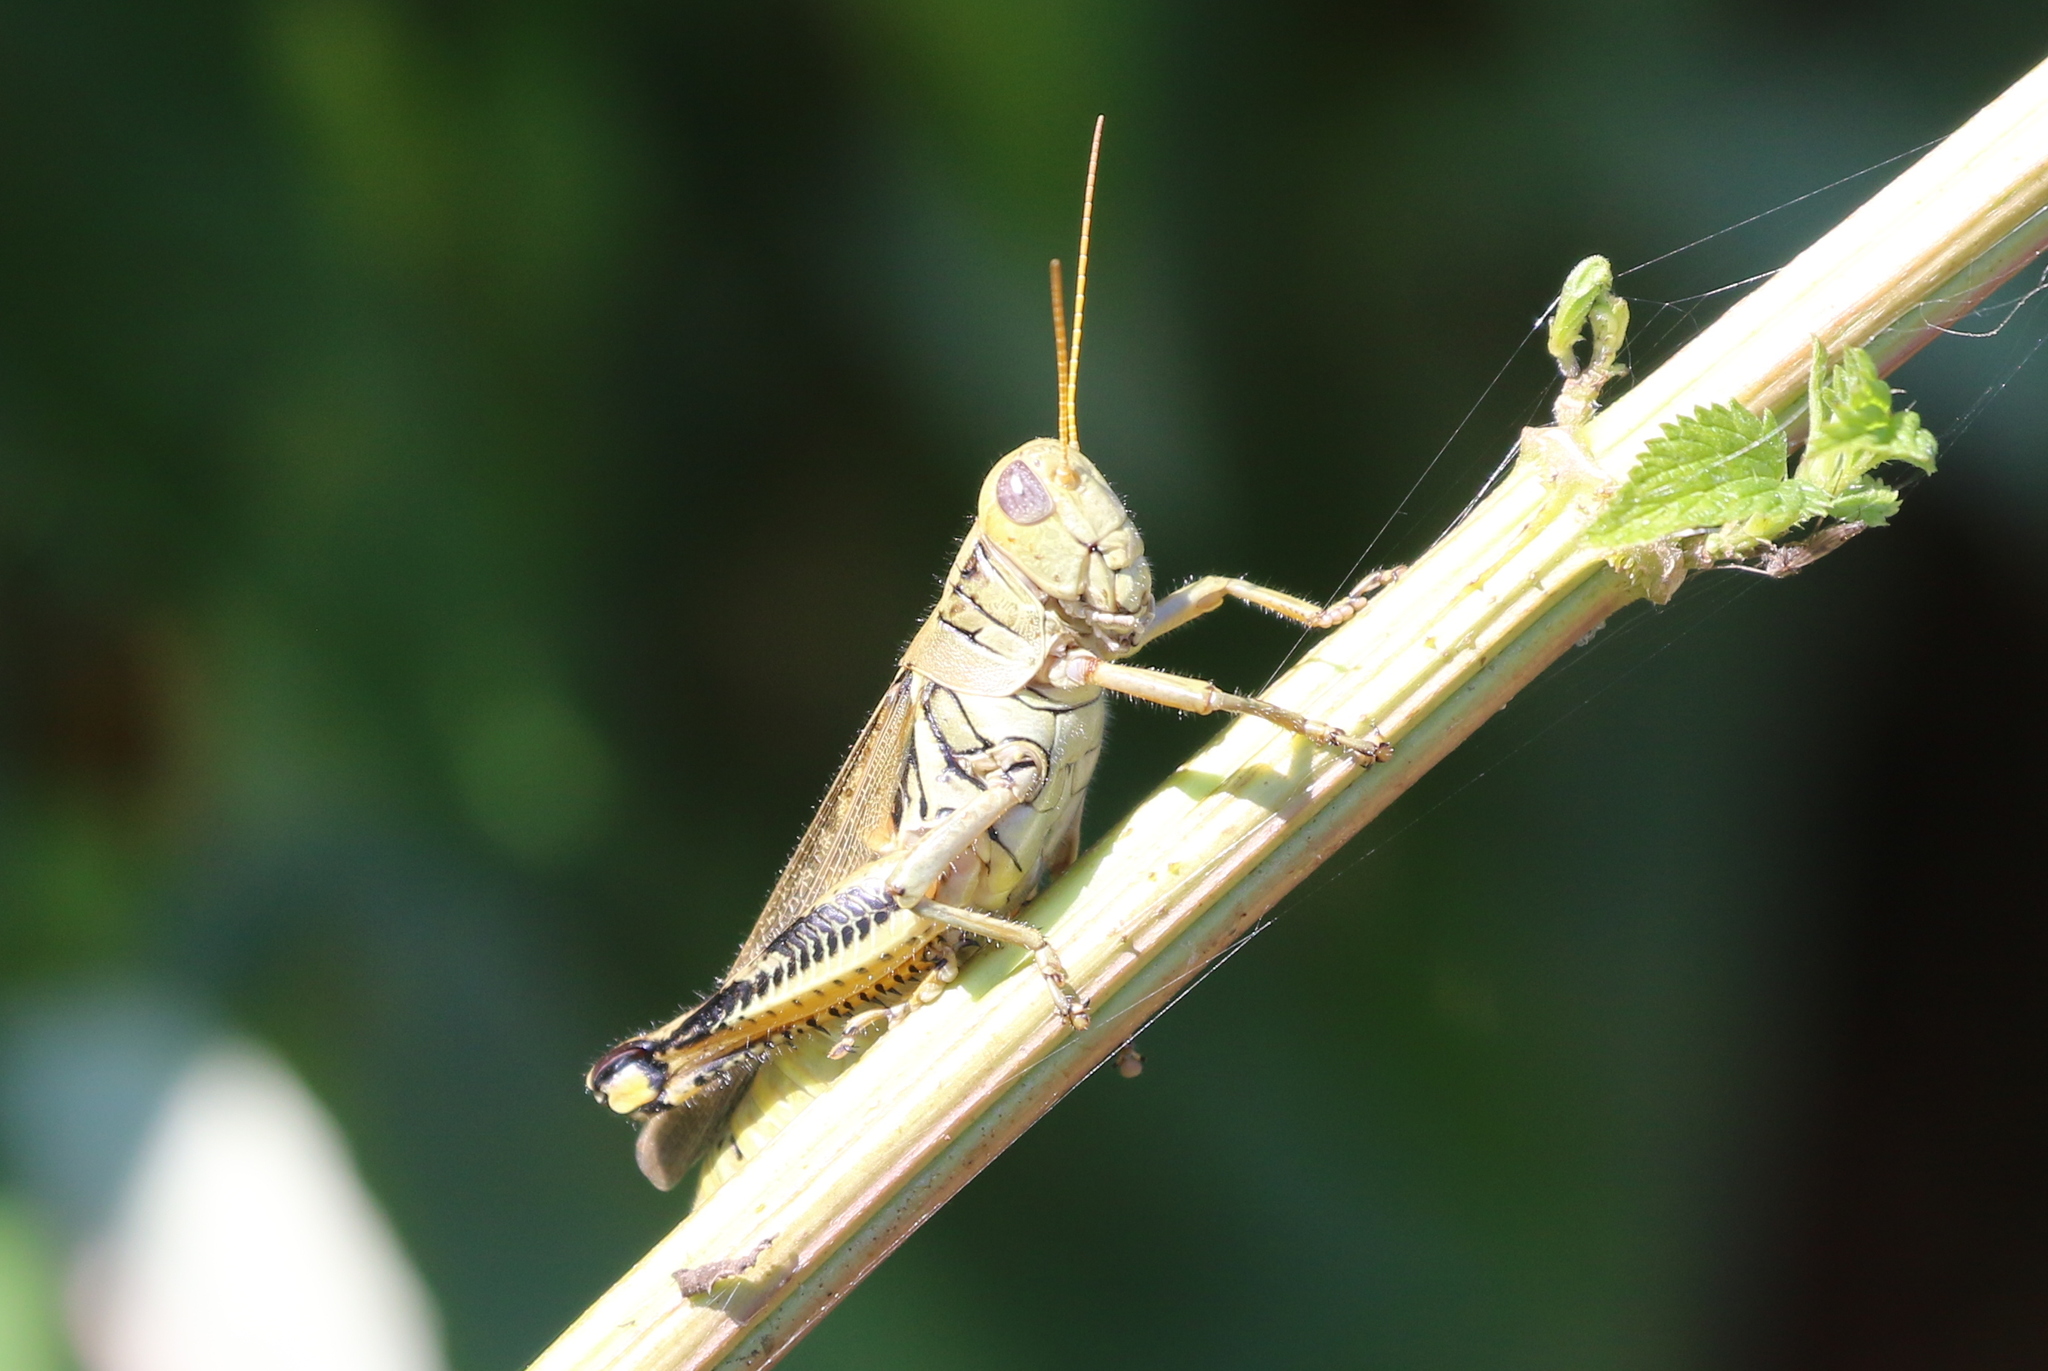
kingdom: Animalia
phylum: Arthropoda
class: Insecta
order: Orthoptera
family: Acrididae
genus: Melanoplus
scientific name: Melanoplus differentialis
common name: Differential grasshopper
